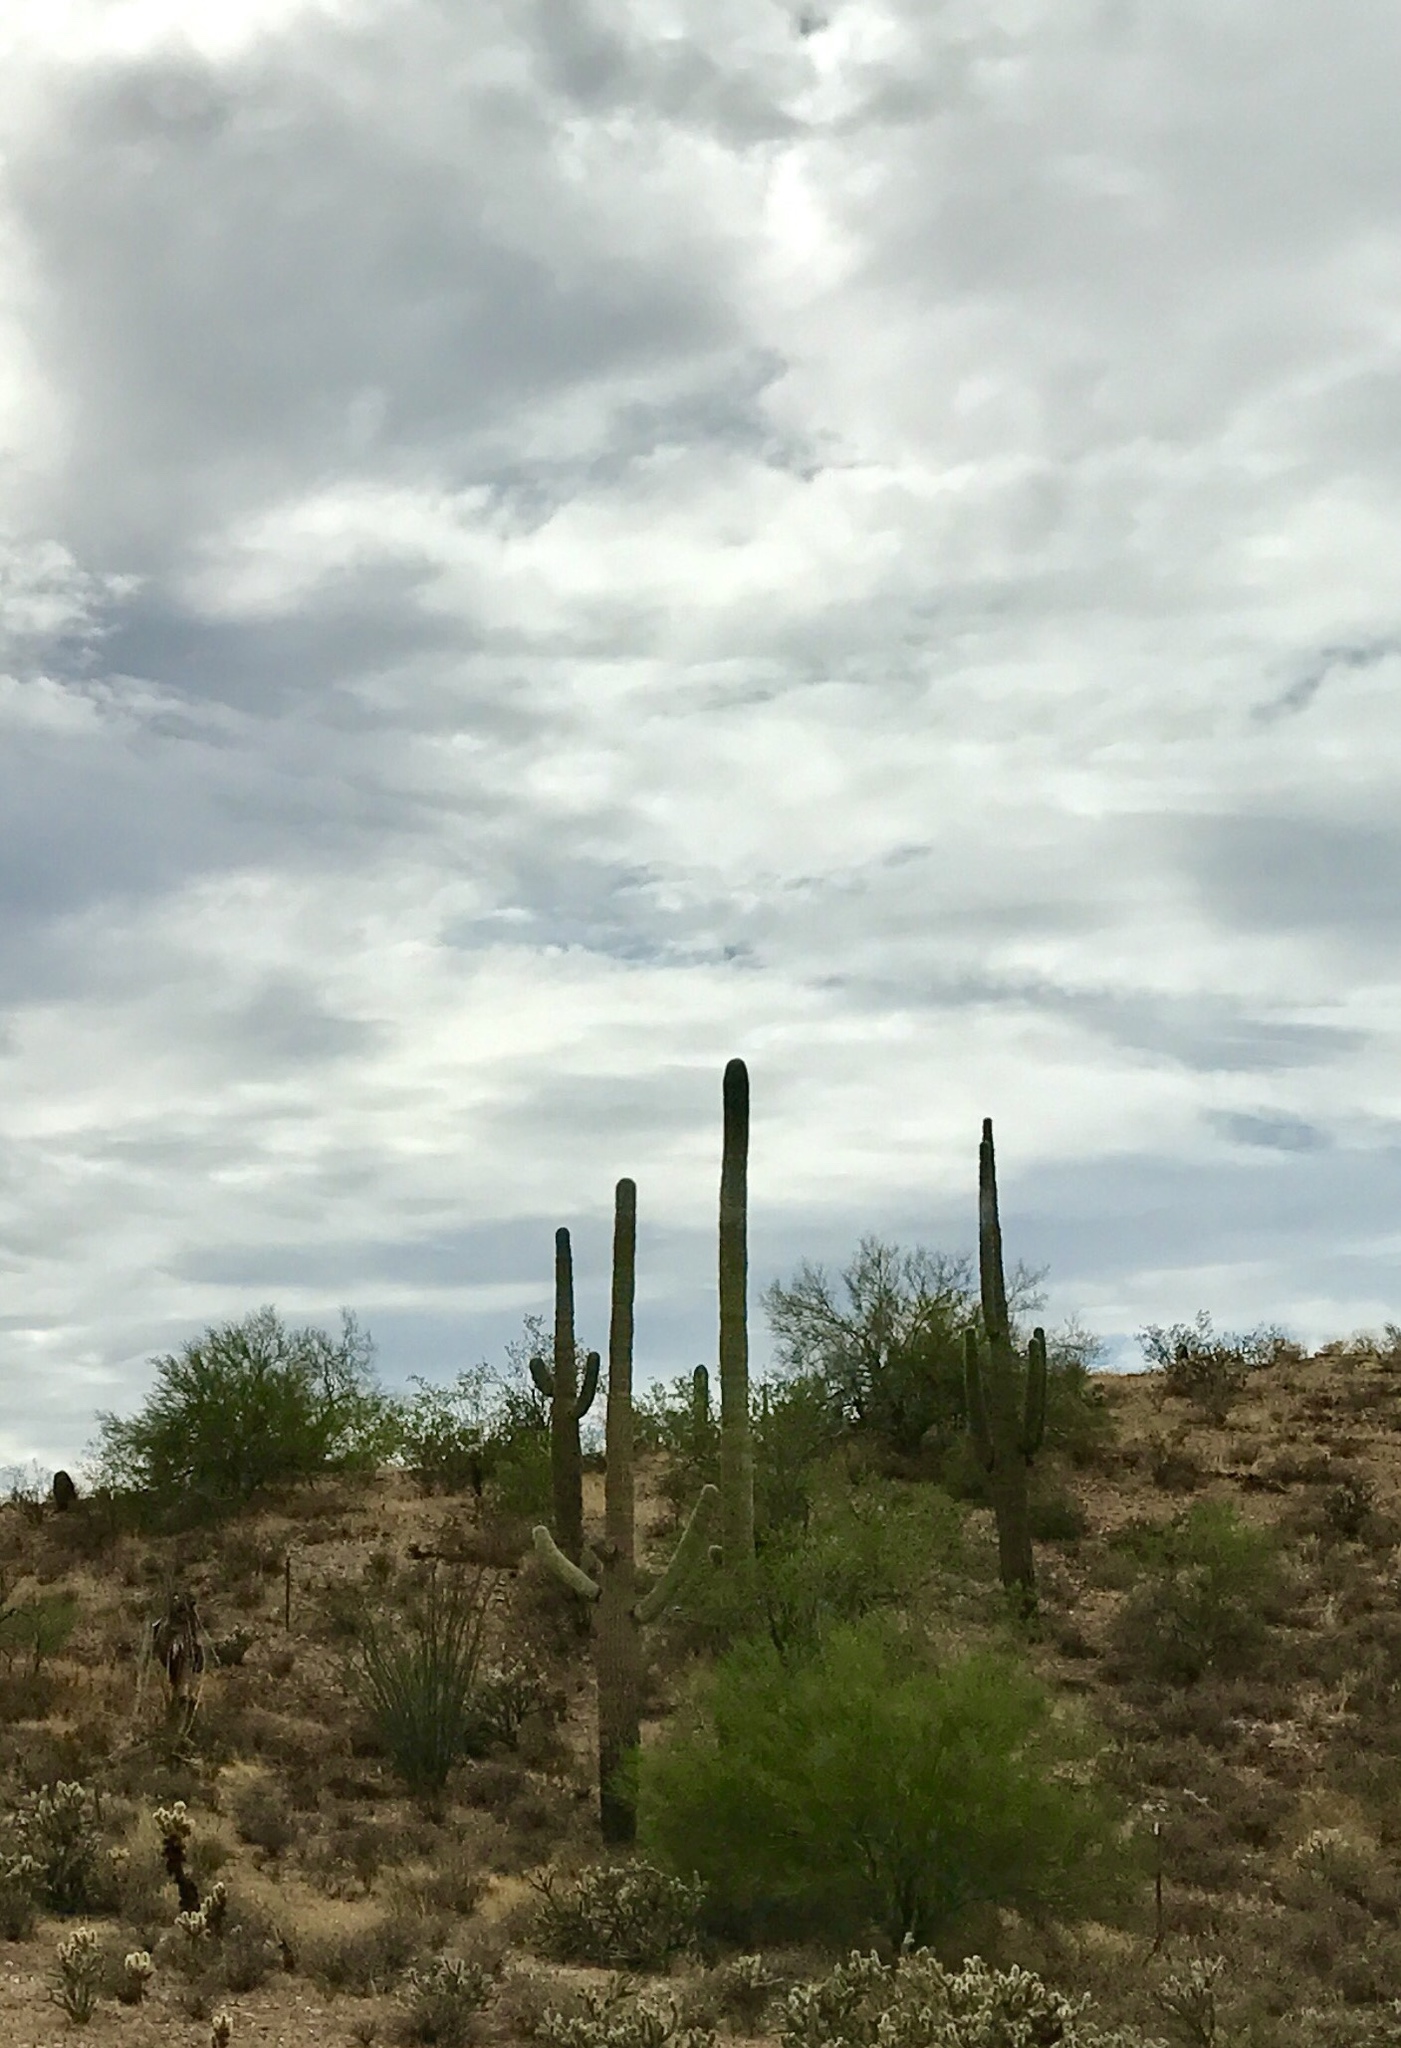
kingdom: Plantae
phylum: Tracheophyta
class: Magnoliopsida
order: Caryophyllales
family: Cactaceae
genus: Carnegiea
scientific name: Carnegiea gigantea
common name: Saguaro
